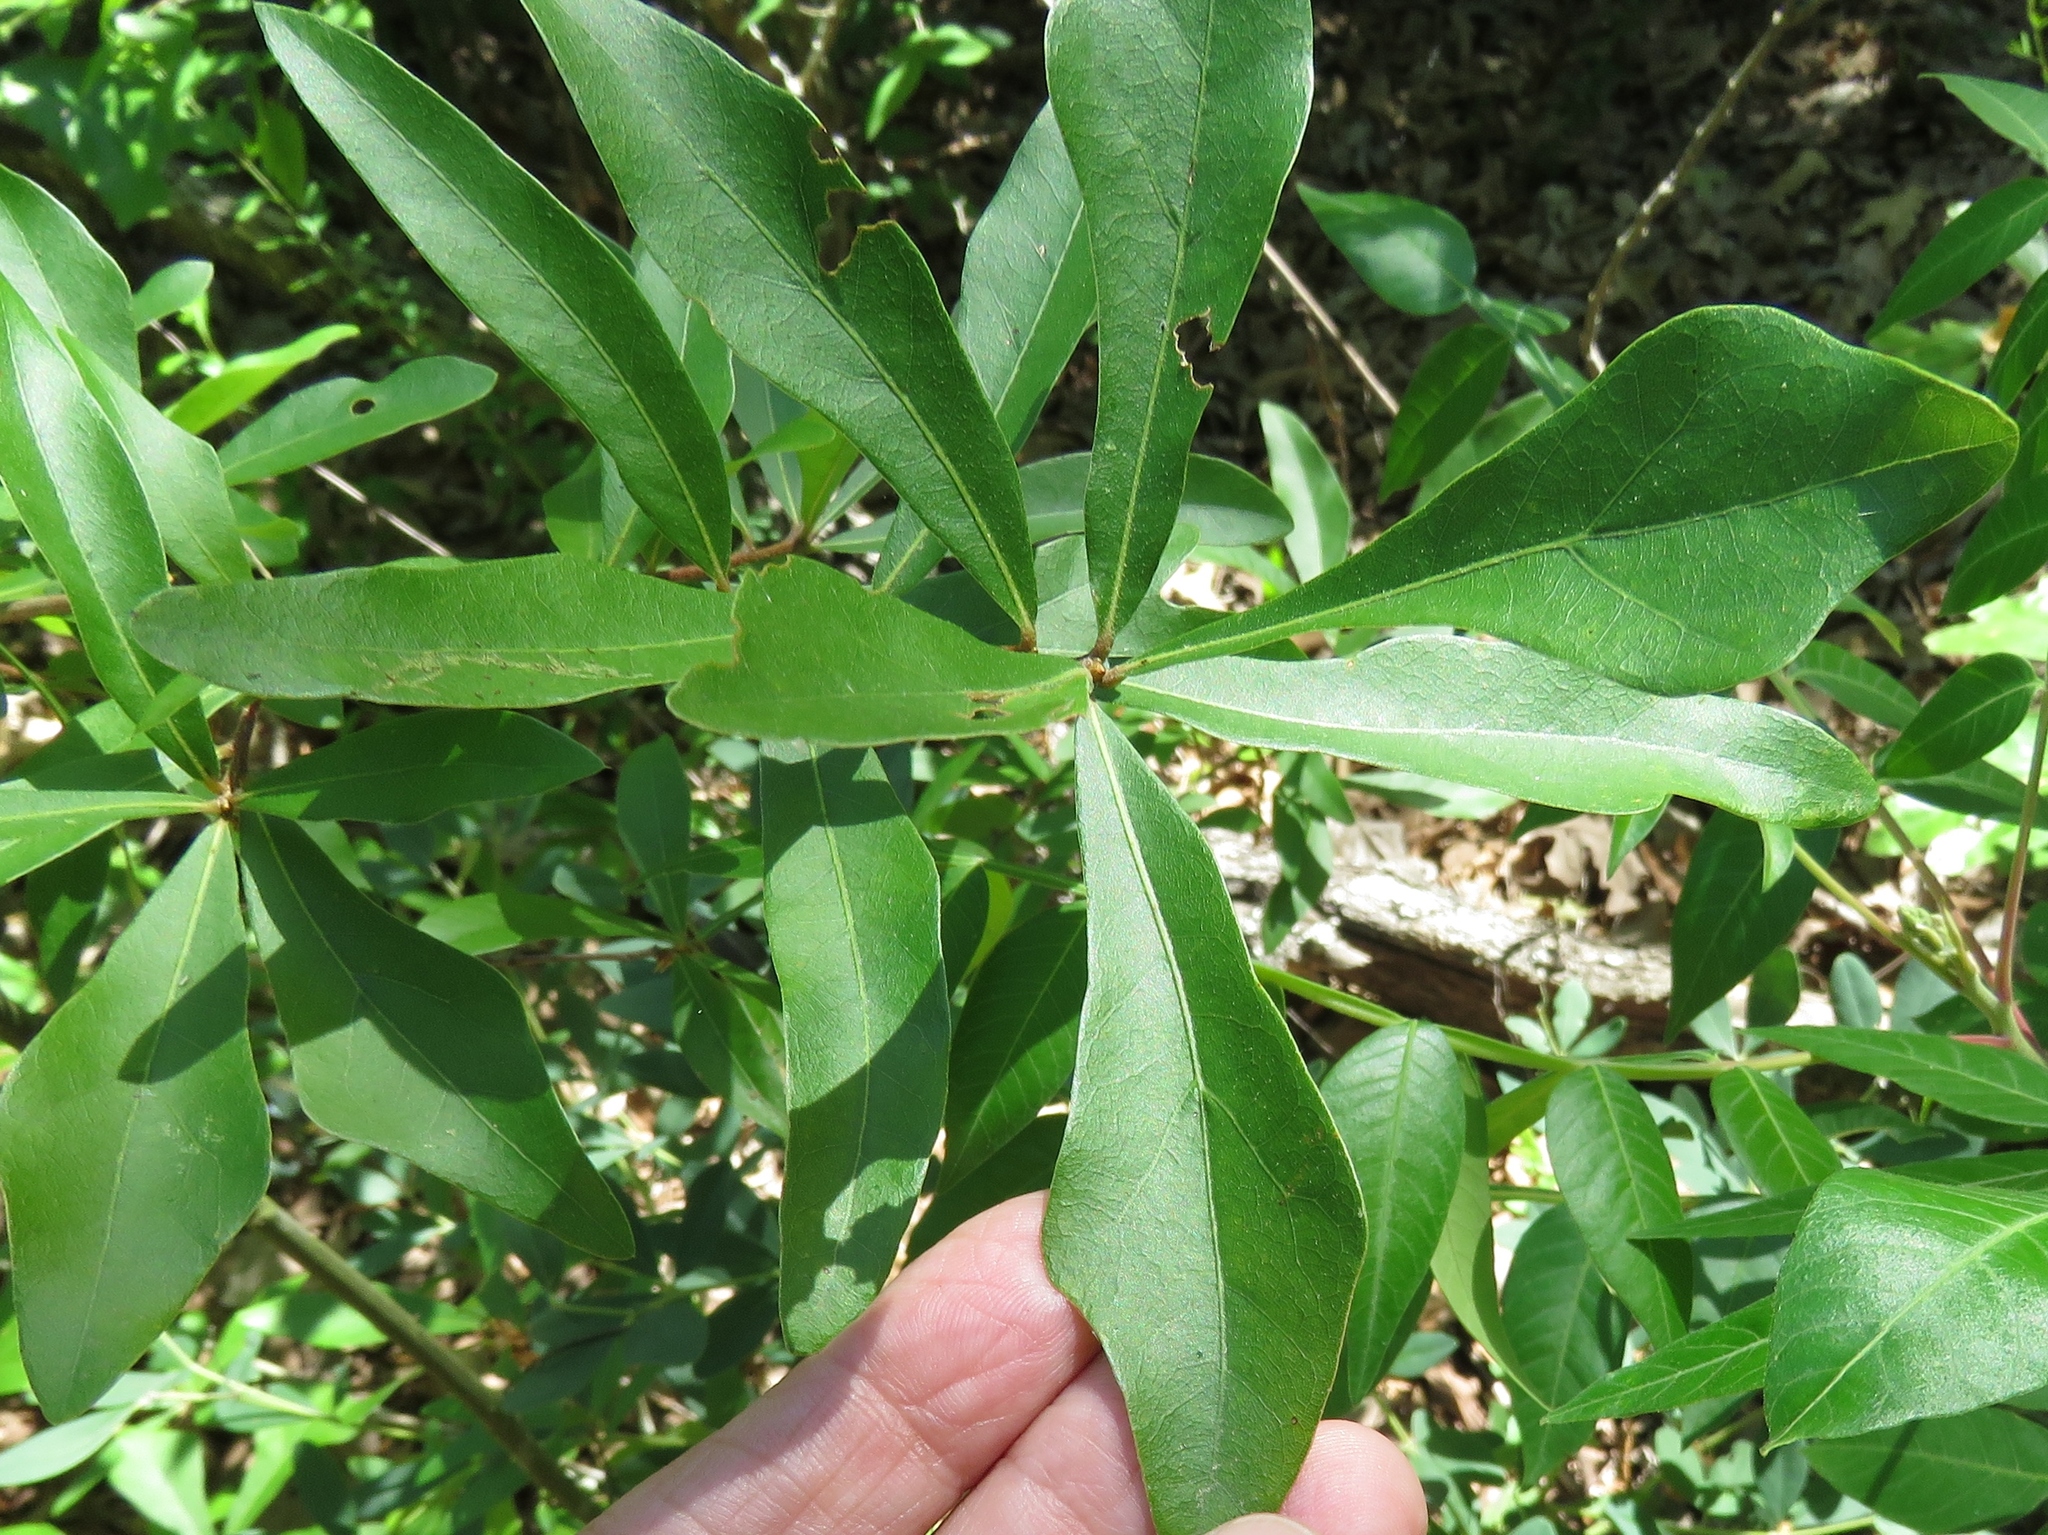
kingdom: Plantae
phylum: Tracheophyta
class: Magnoliopsida
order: Fagales
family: Fagaceae
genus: Quercus
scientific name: Quercus nigra
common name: Water oak
